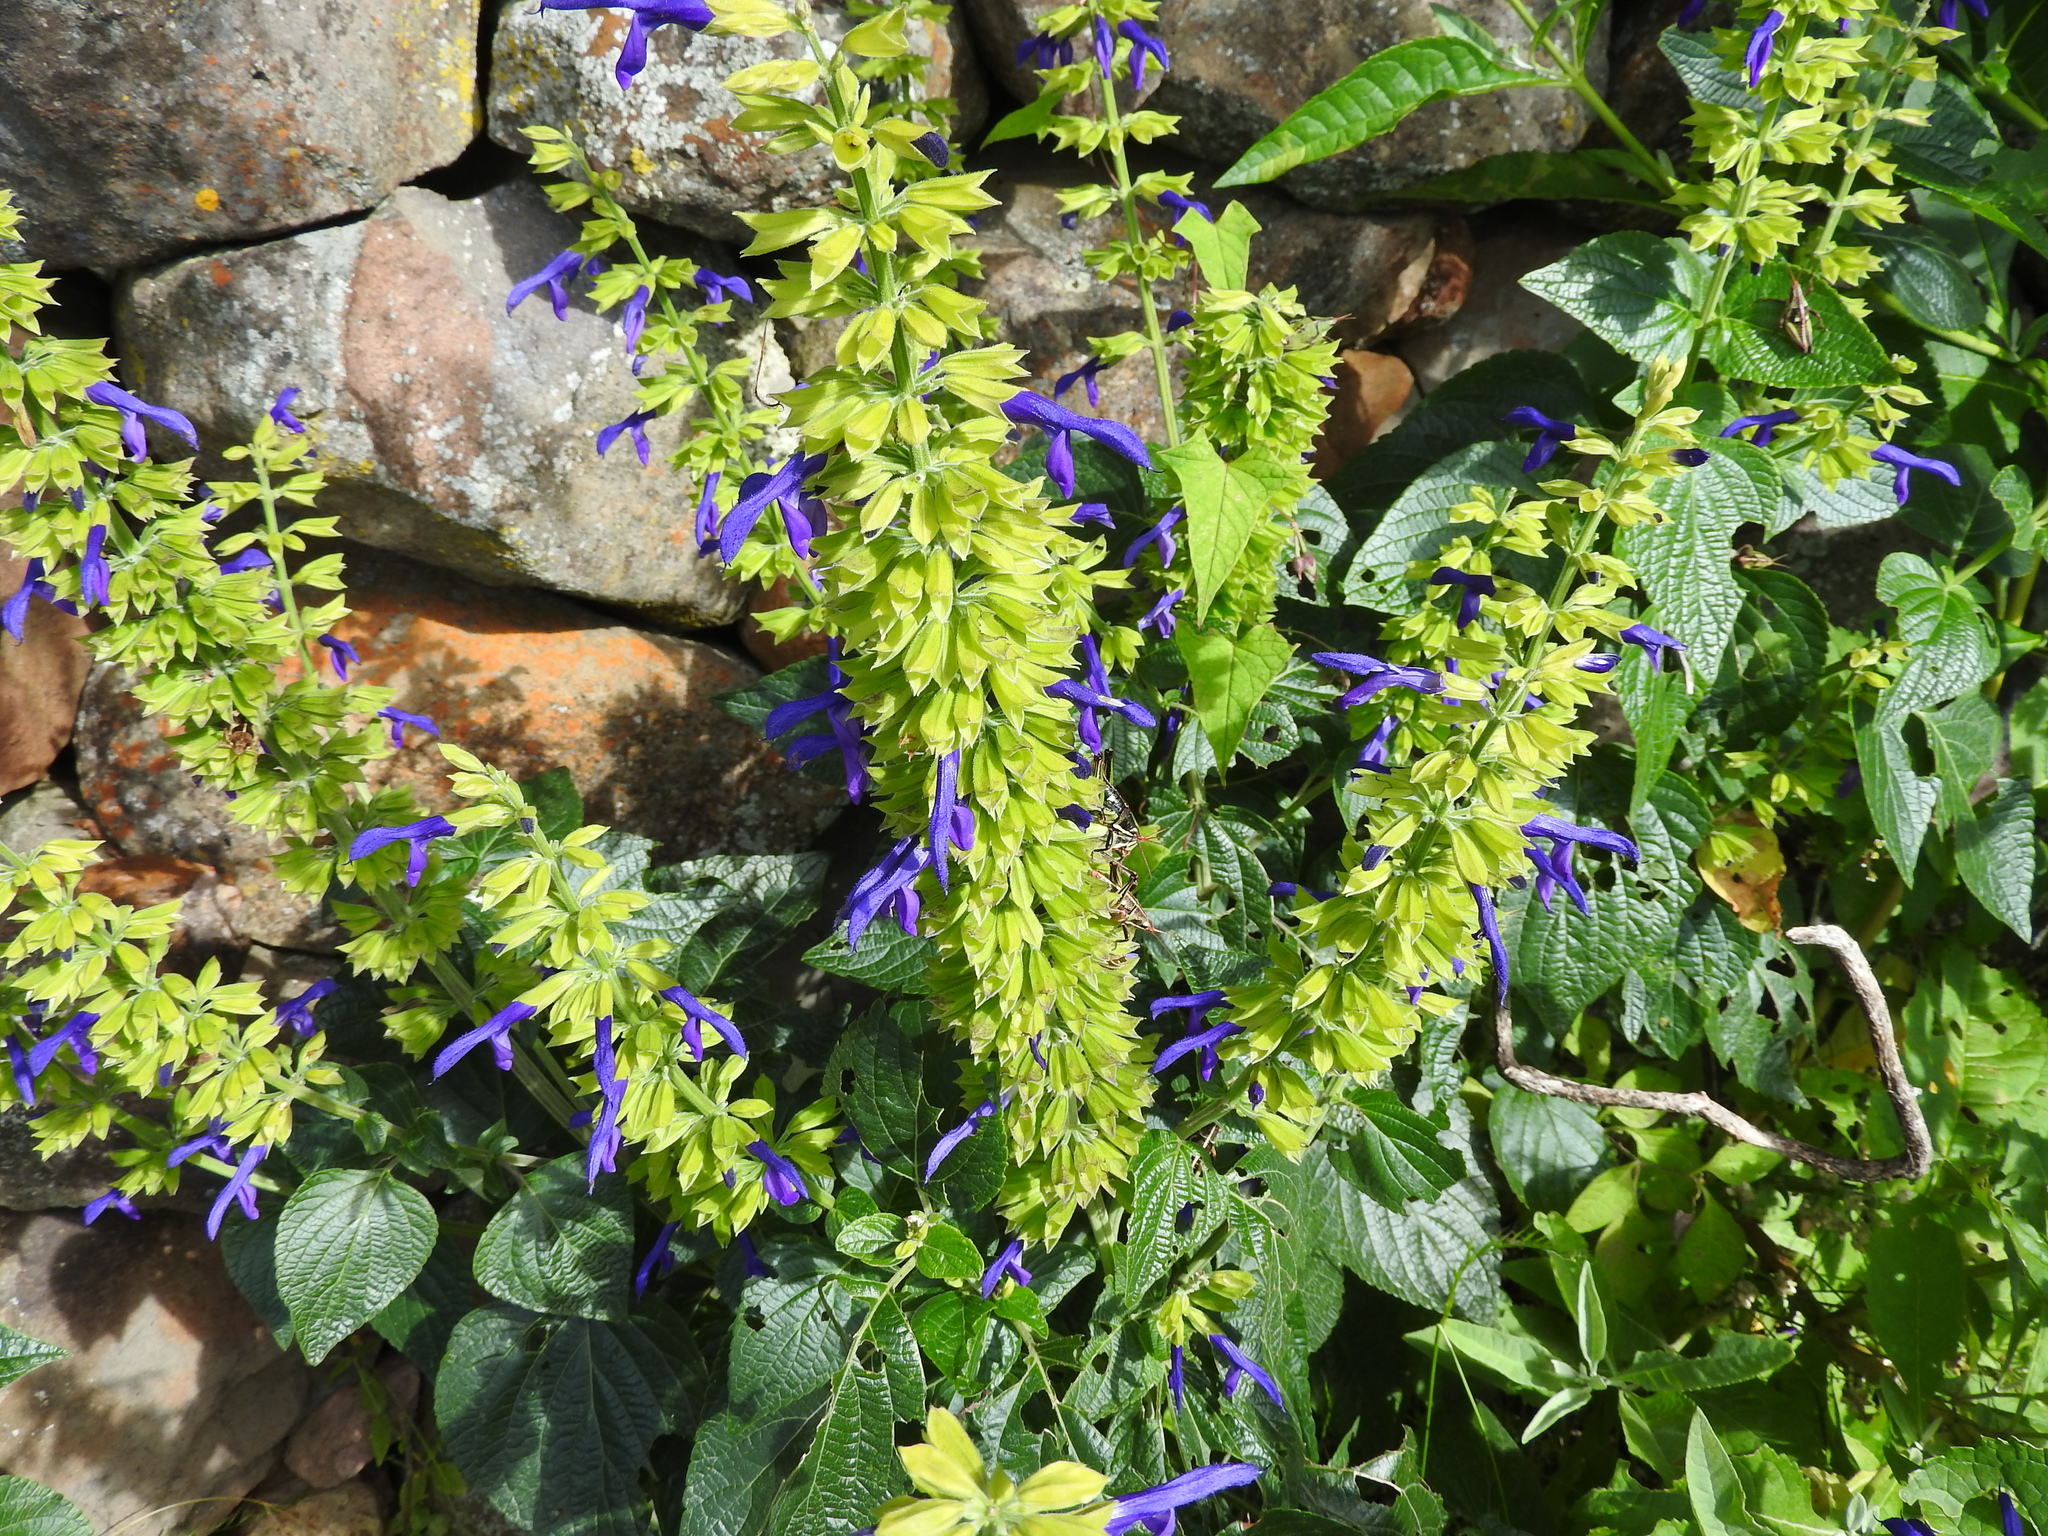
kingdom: Plantae
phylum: Tracheophyta
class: Magnoliopsida
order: Lamiales
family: Lamiaceae
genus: Salvia
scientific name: Salvia mexicana
